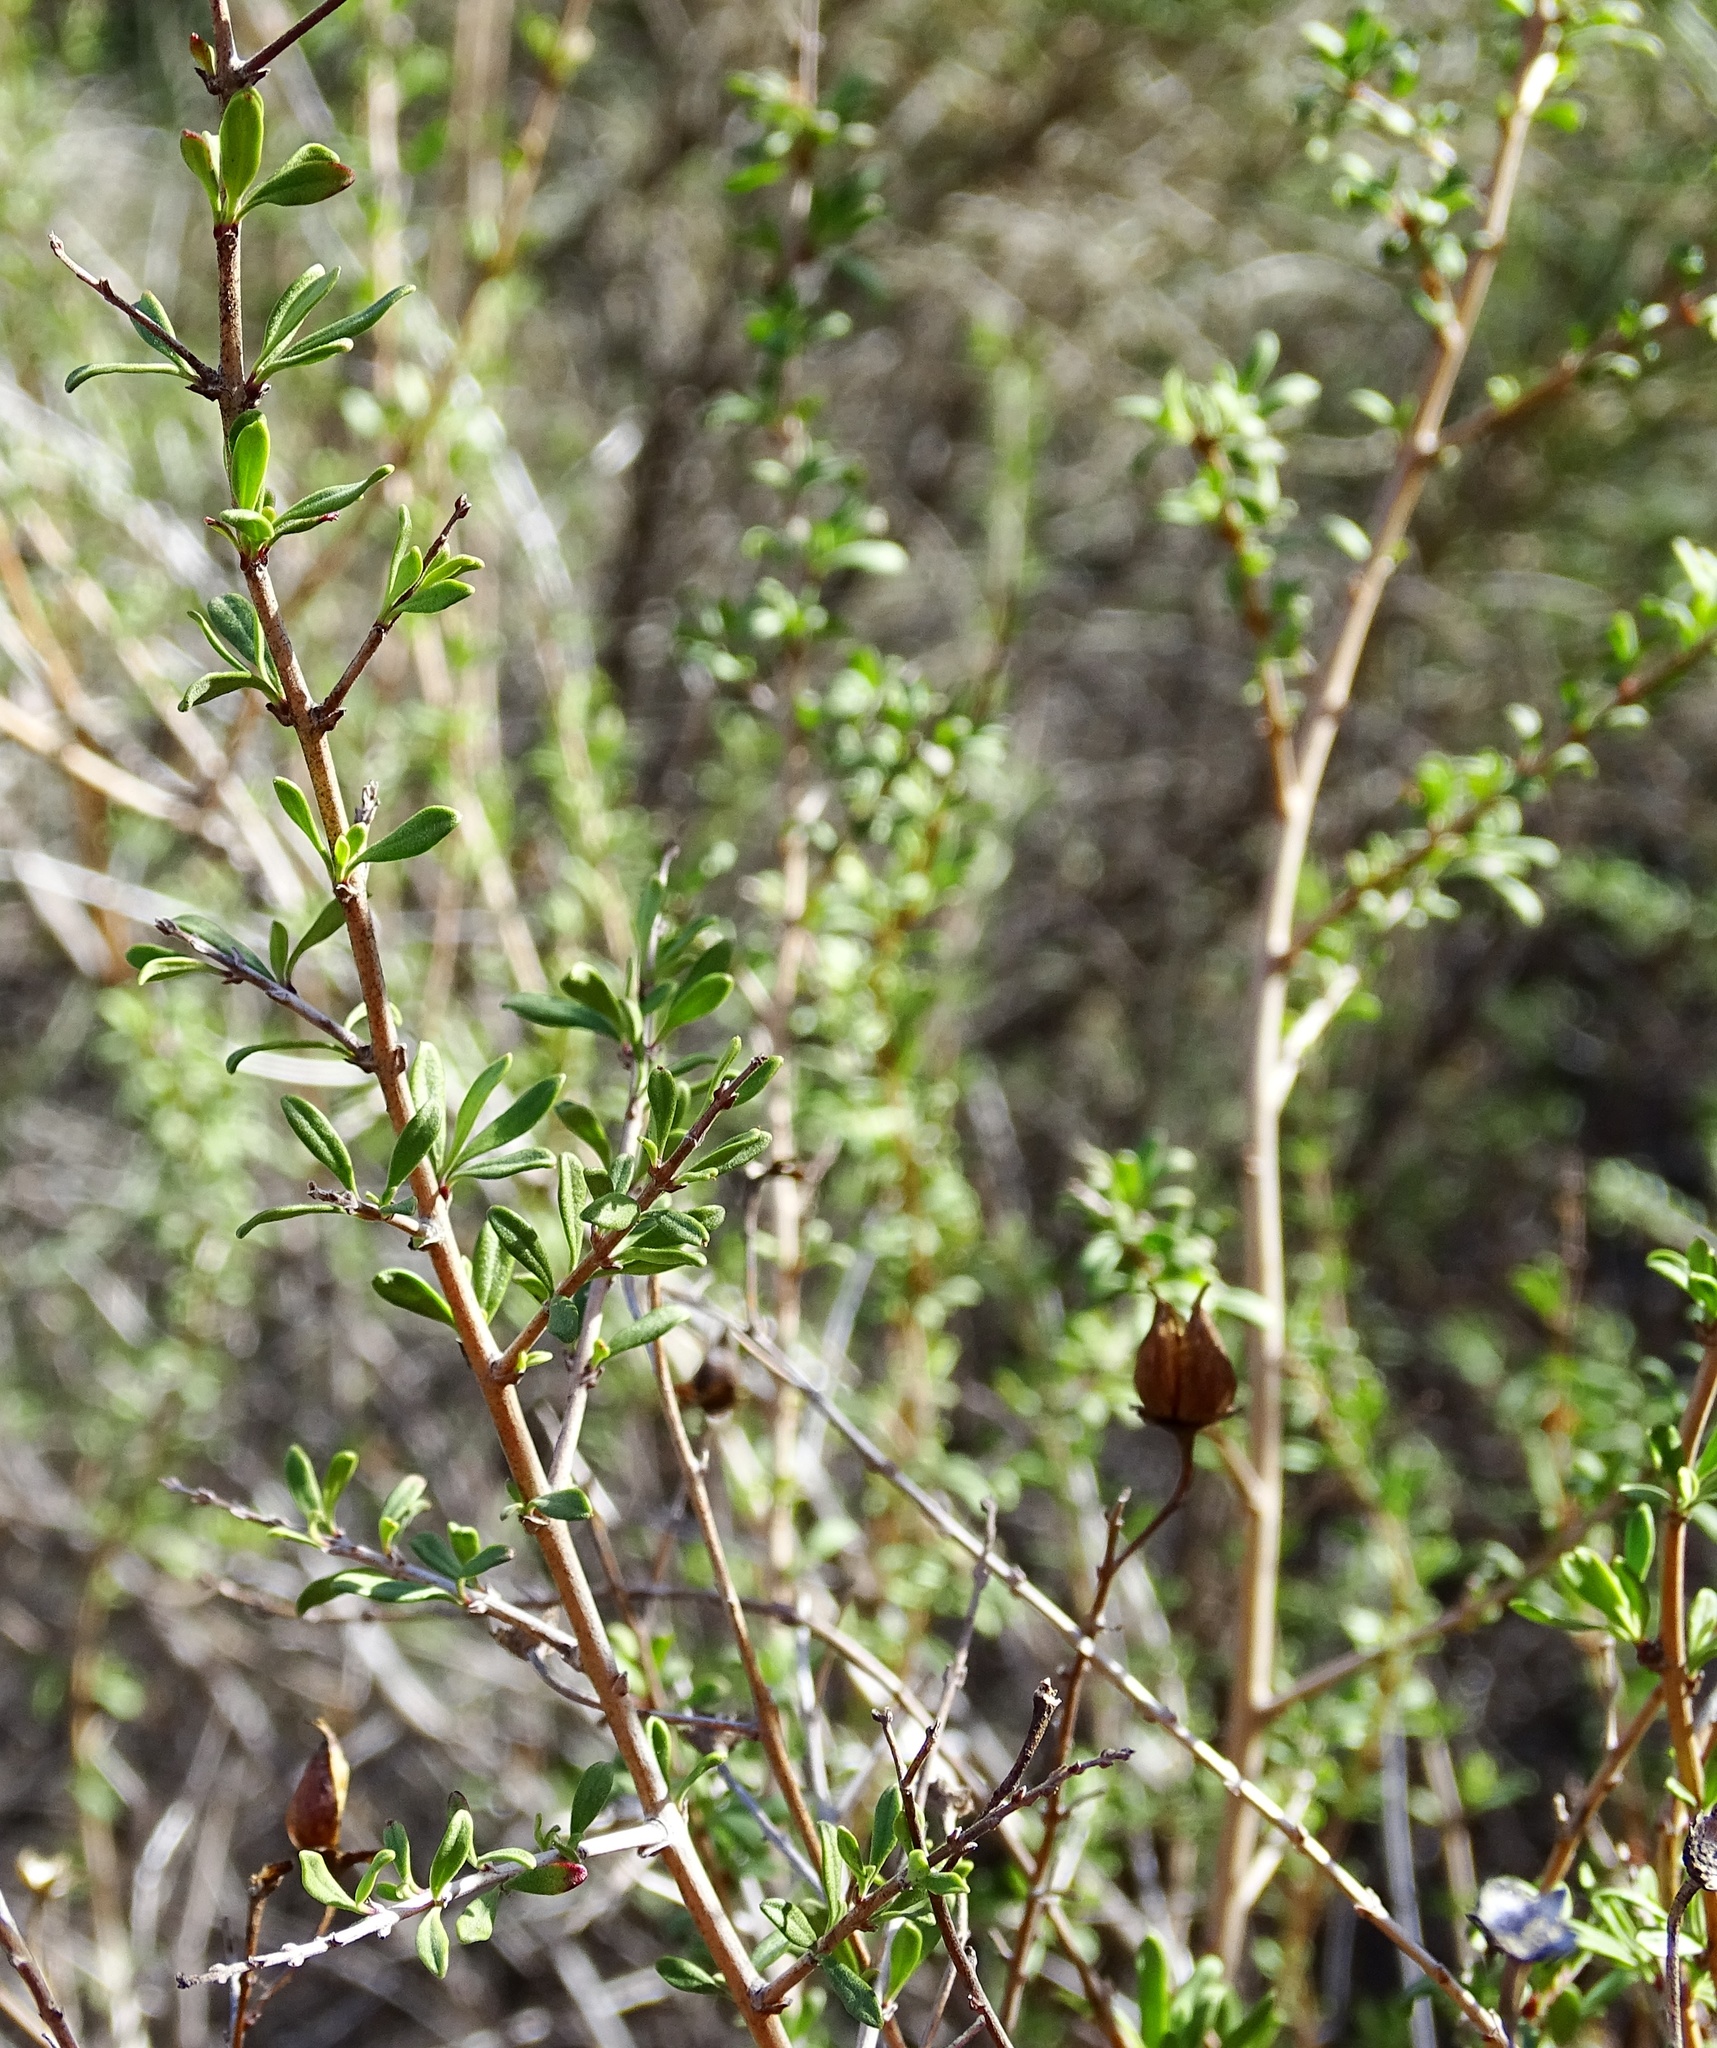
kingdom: Plantae
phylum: Tracheophyta
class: Magnoliopsida
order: Lamiales
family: Plantaginaceae
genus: Keckiella
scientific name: Keckiella antirrhinoides
